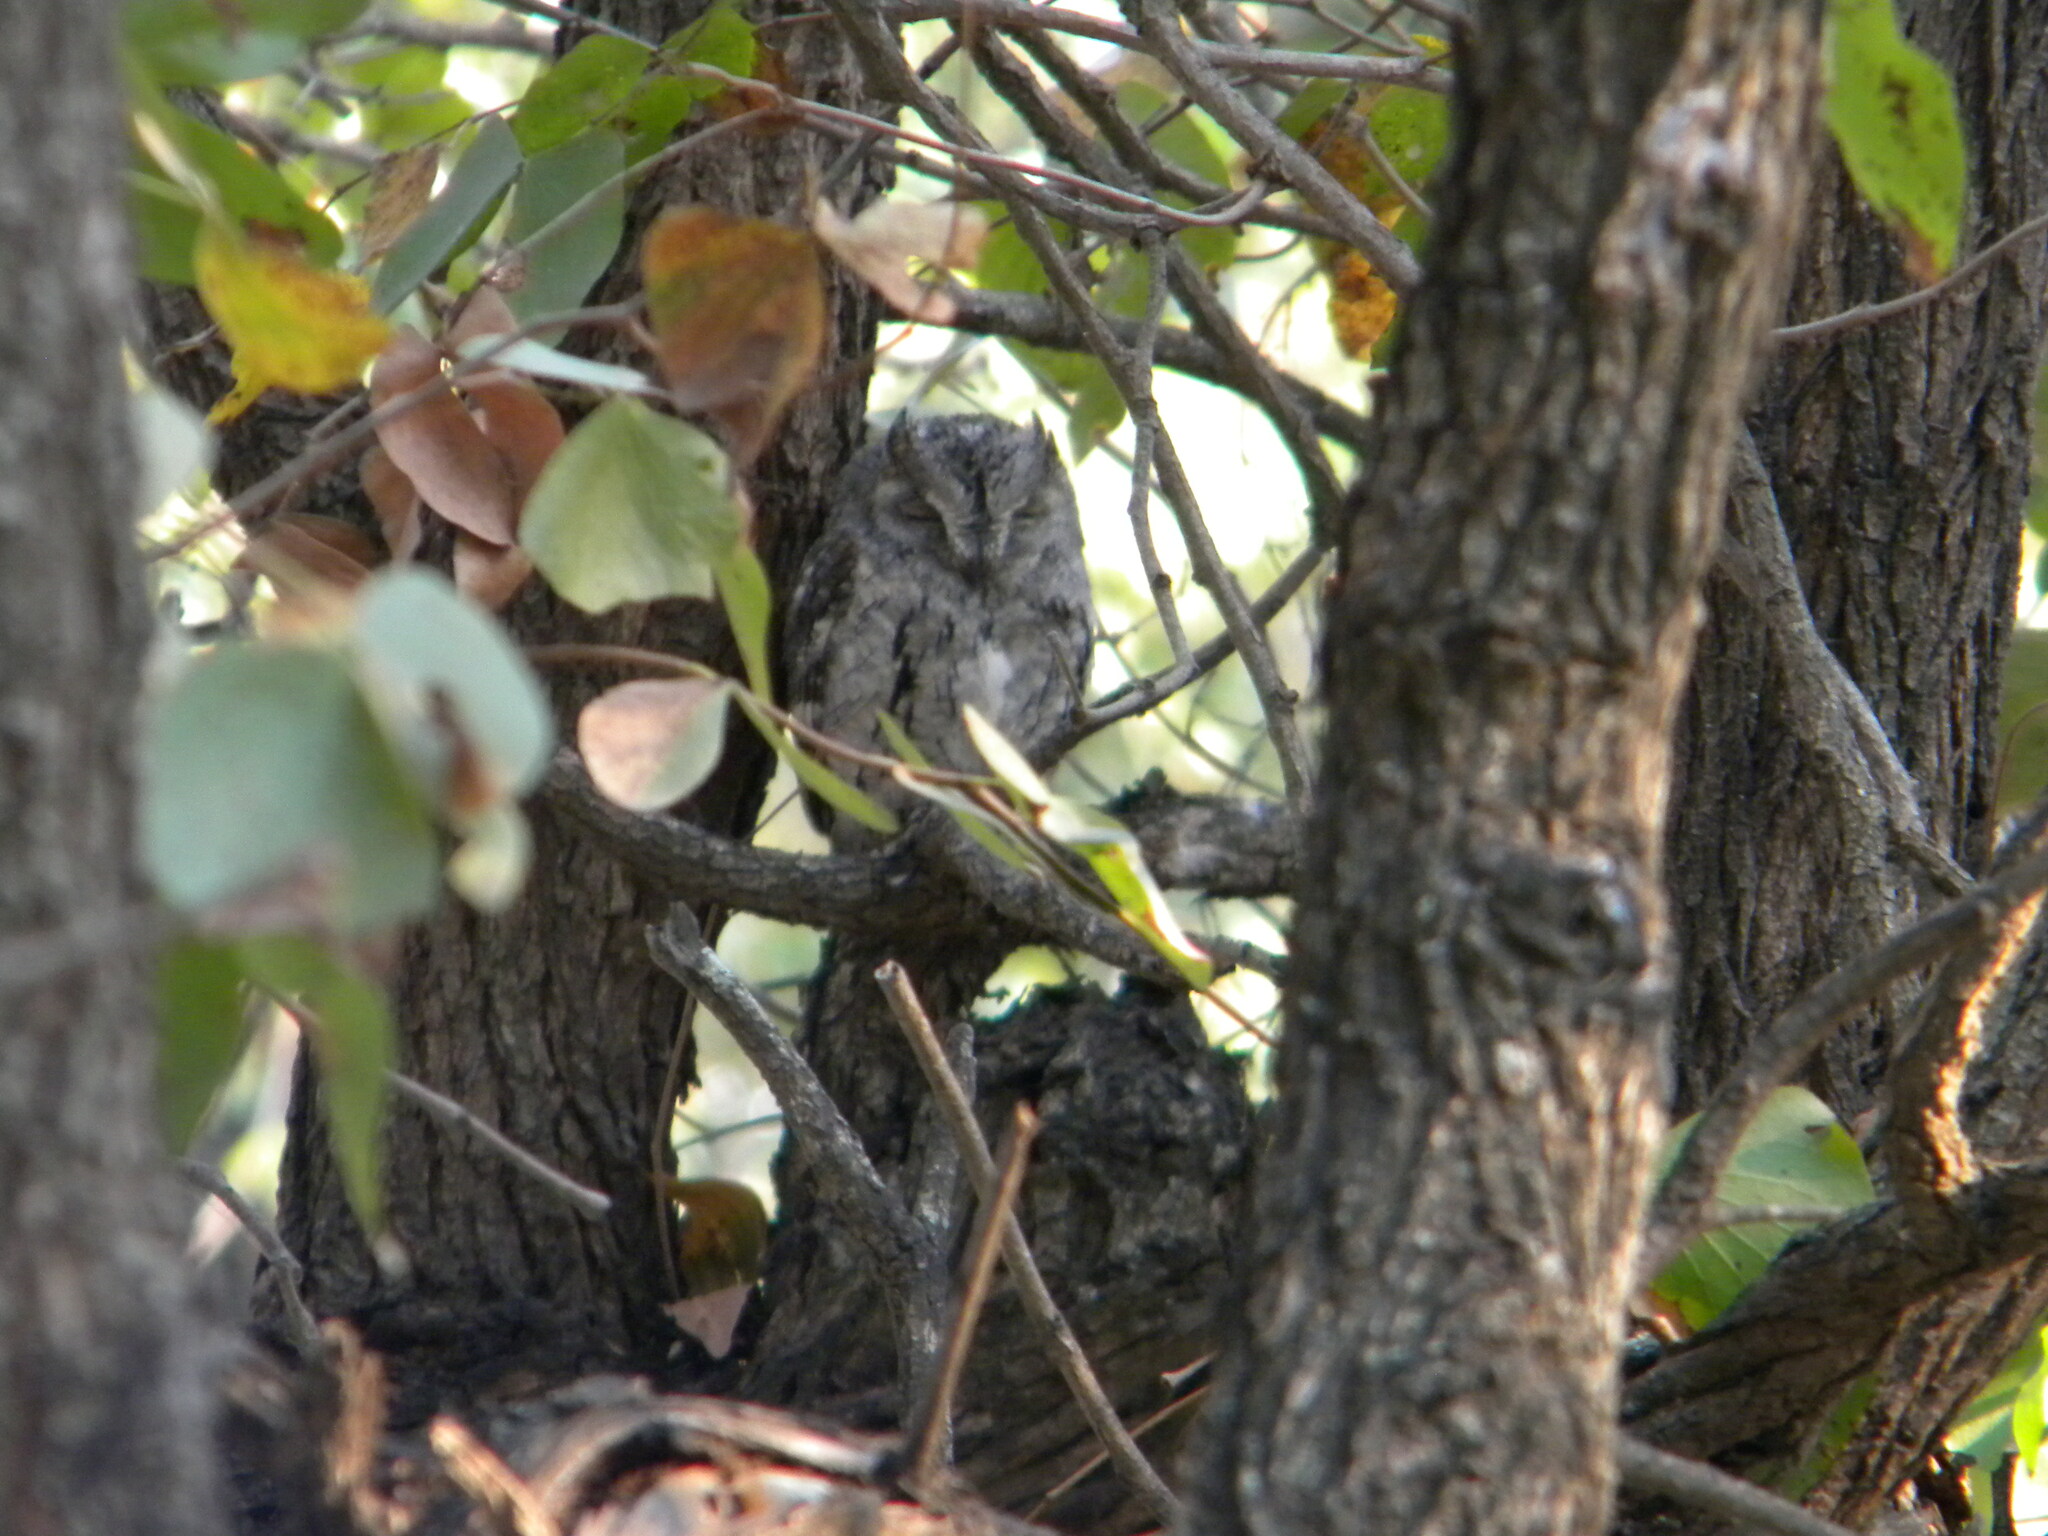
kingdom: Animalia
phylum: Chordata
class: Aves
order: Strigiformes
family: Strigidae
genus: Otus
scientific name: Otus senegalensis
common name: African scops owl
